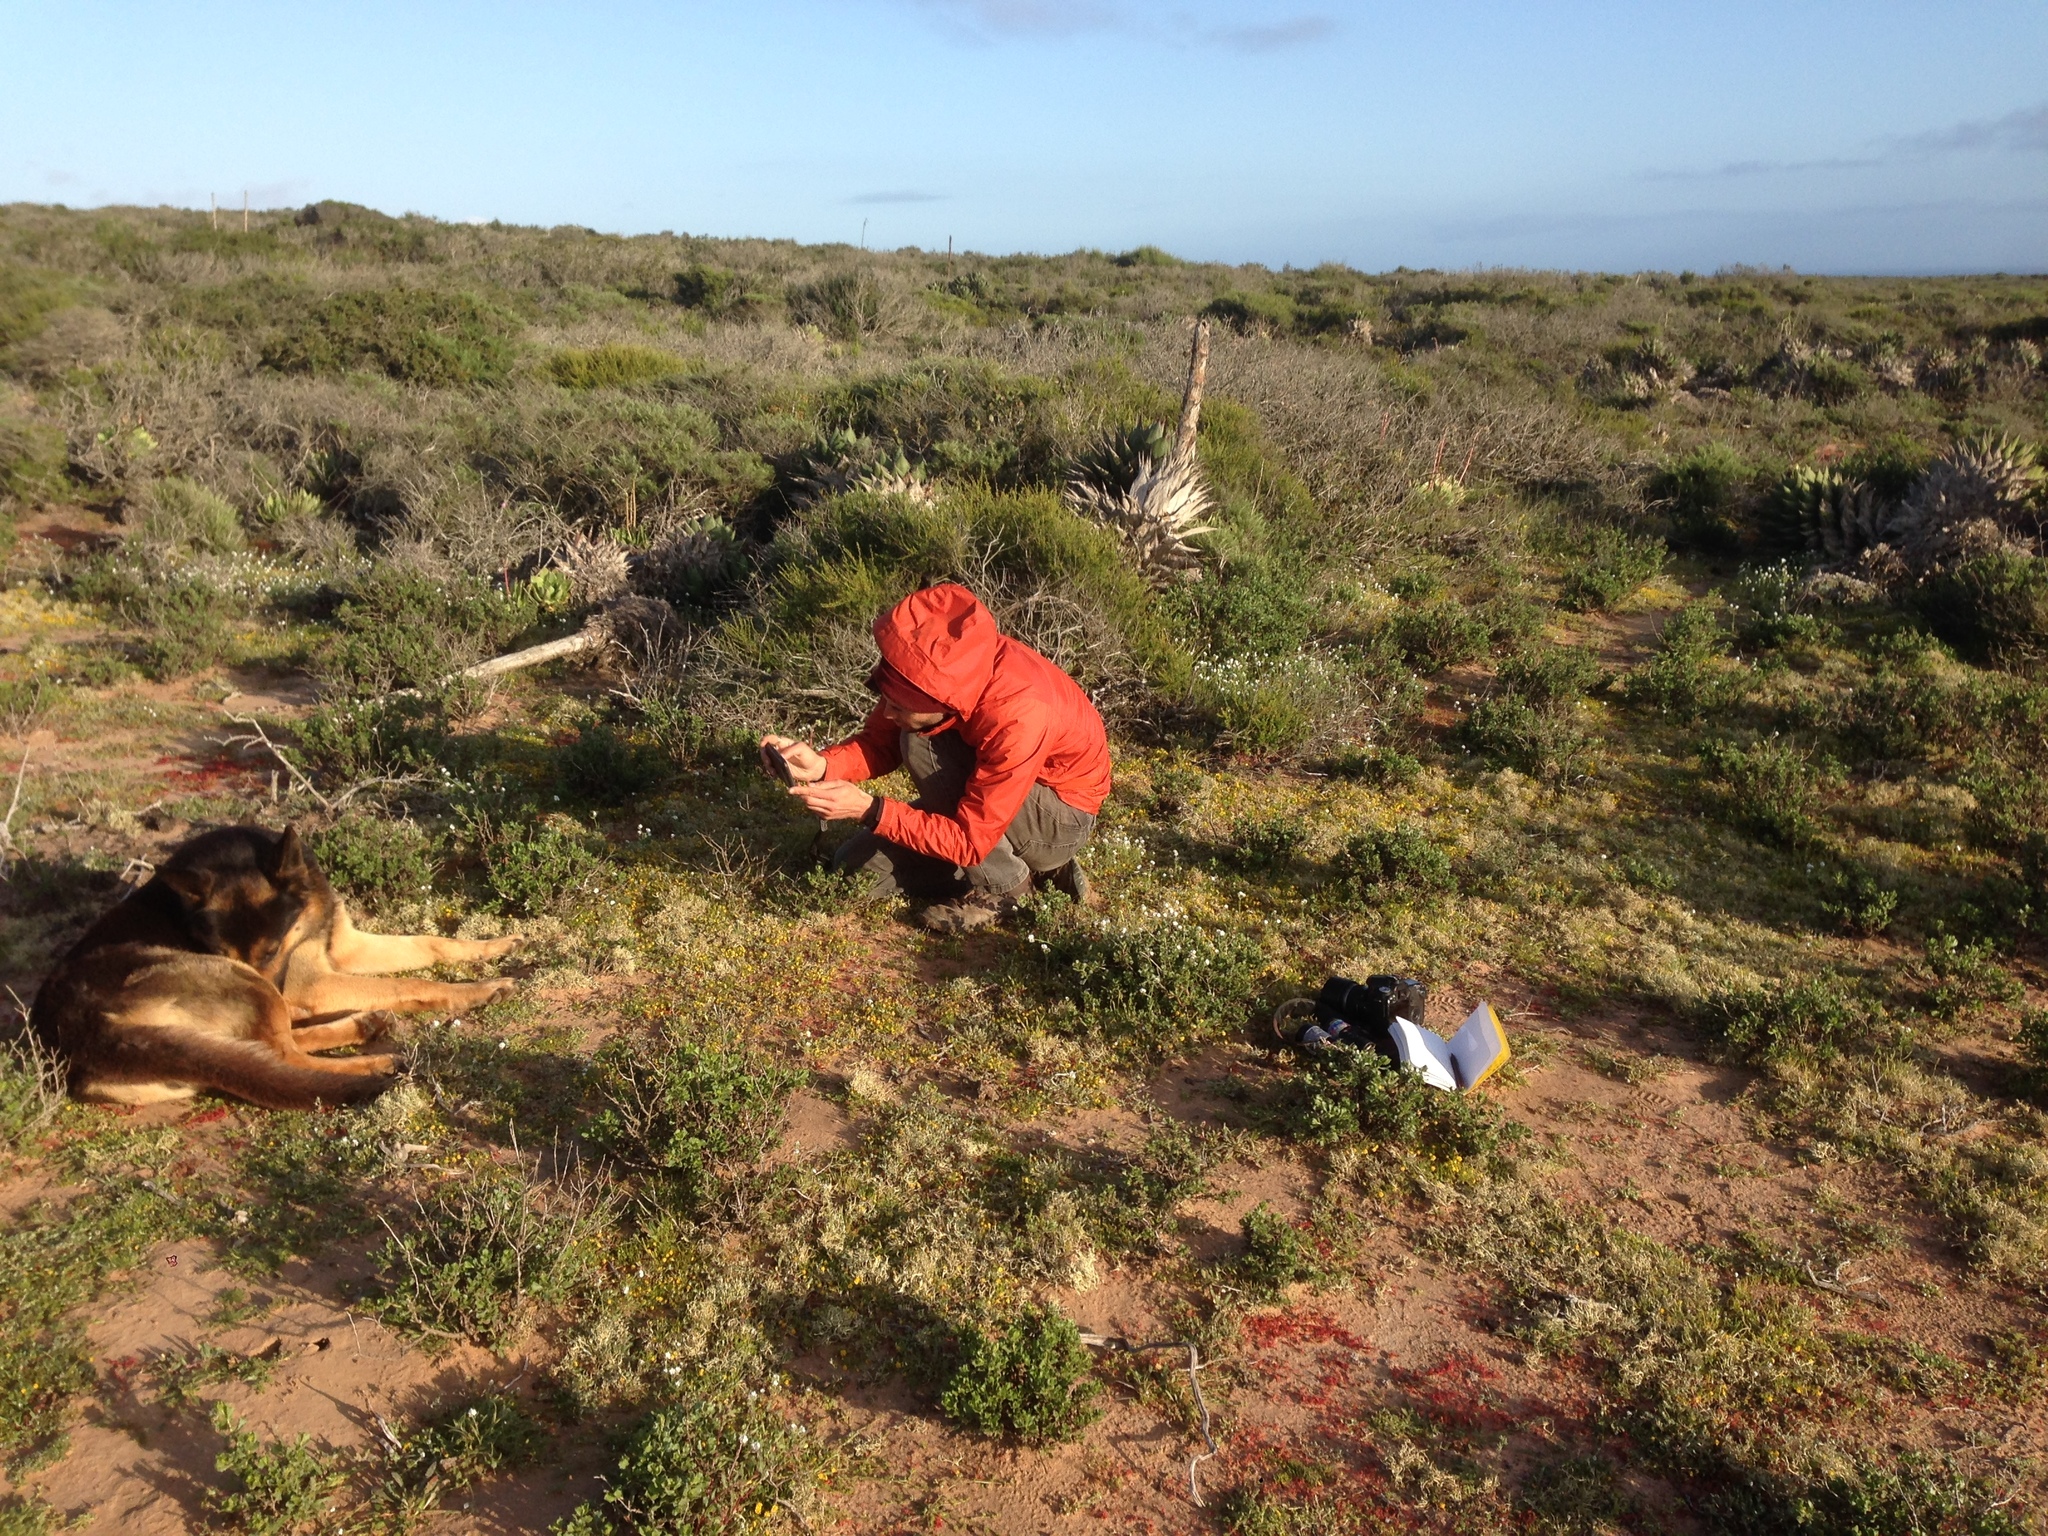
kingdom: Plantae
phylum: Tracheophyta
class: Liliopsida
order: Asparagales
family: Asparagaceae
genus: Agave
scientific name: Agave shawii
